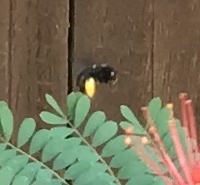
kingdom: Animalia
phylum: Arthropoda
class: Insecta
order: Hymenoptera
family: Apidae
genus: Melissodes
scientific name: Melissodes bimaculatus
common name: Two-spotted long-horned bee
